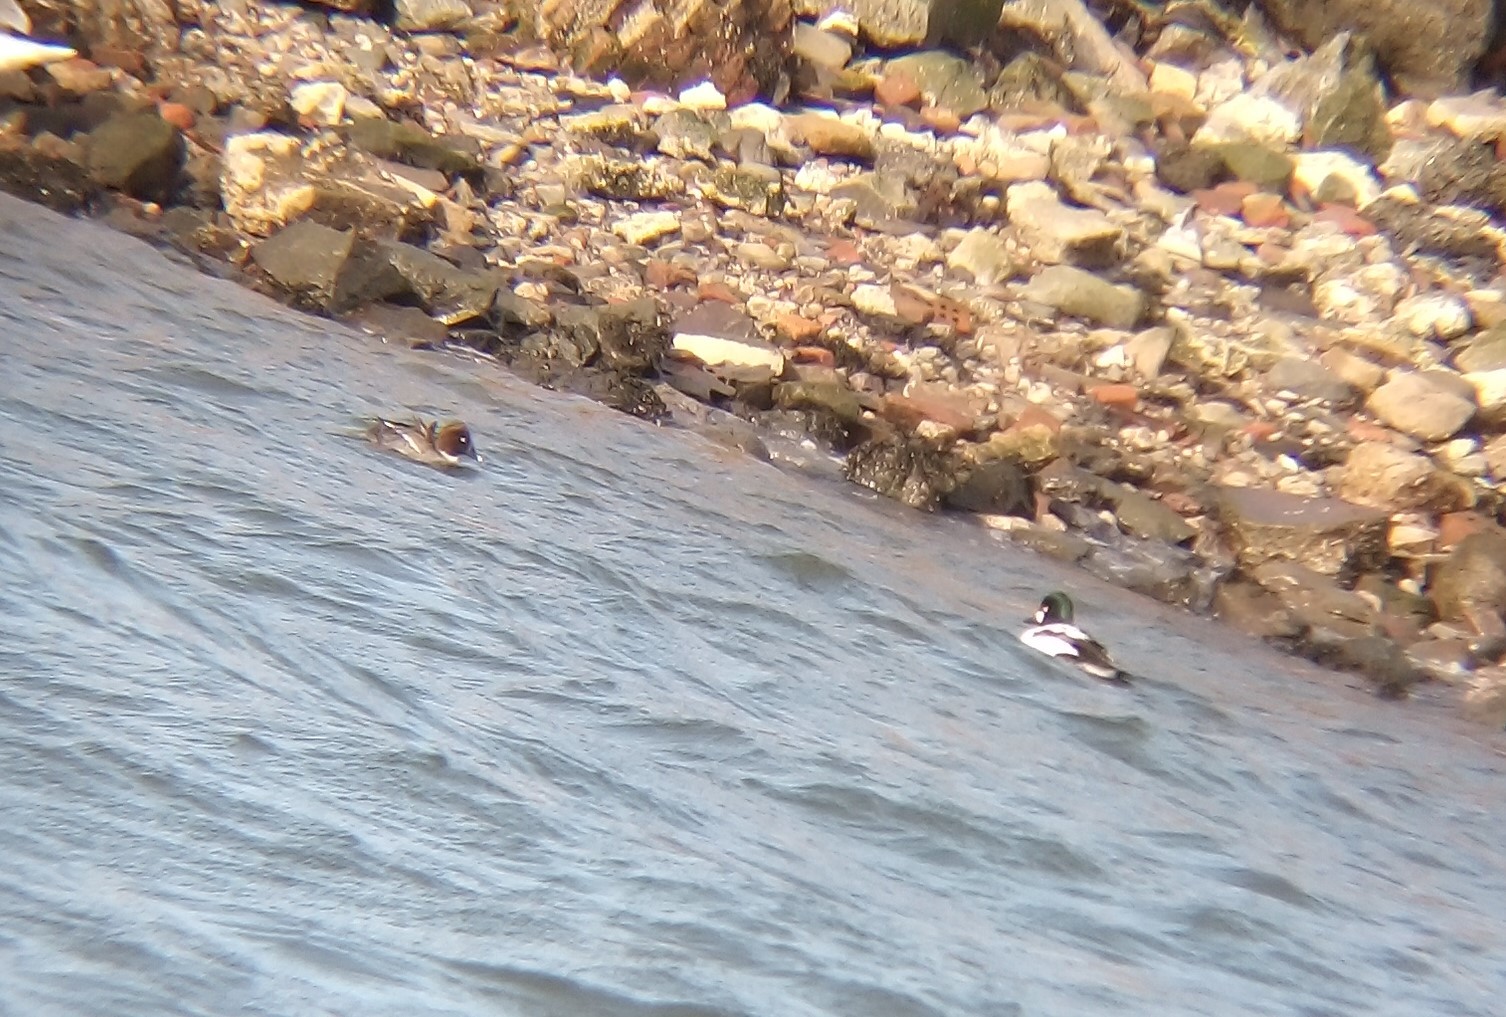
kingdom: Animalia
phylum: Chordata
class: Aves
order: Anseriformes
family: Anatidae
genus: Bucephala
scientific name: Bucephala clangula
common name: Common goldeneye
